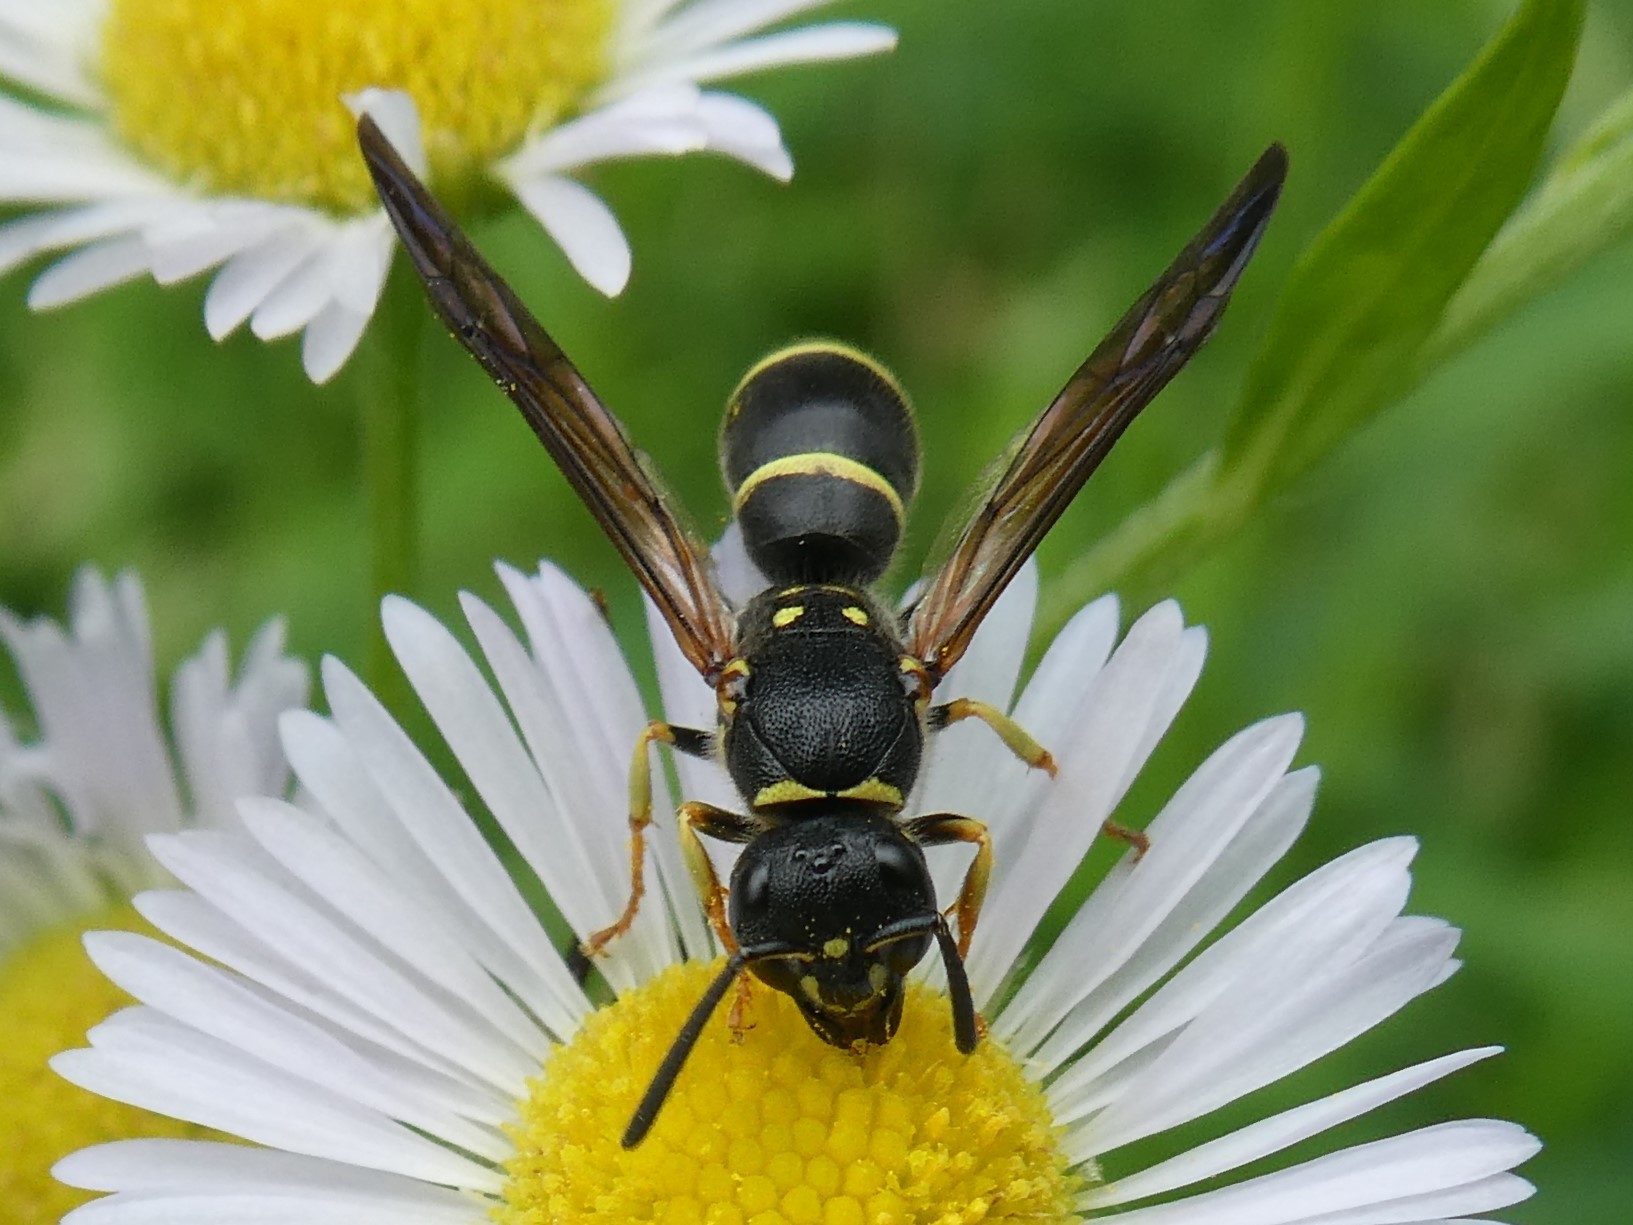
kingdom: Animalia
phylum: Arthropoda
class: Insecta
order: Hymenoptera
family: Vespidae
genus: Ancistrocerus
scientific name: Ancistrocerus adiabatus
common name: Bramble mason wasp
